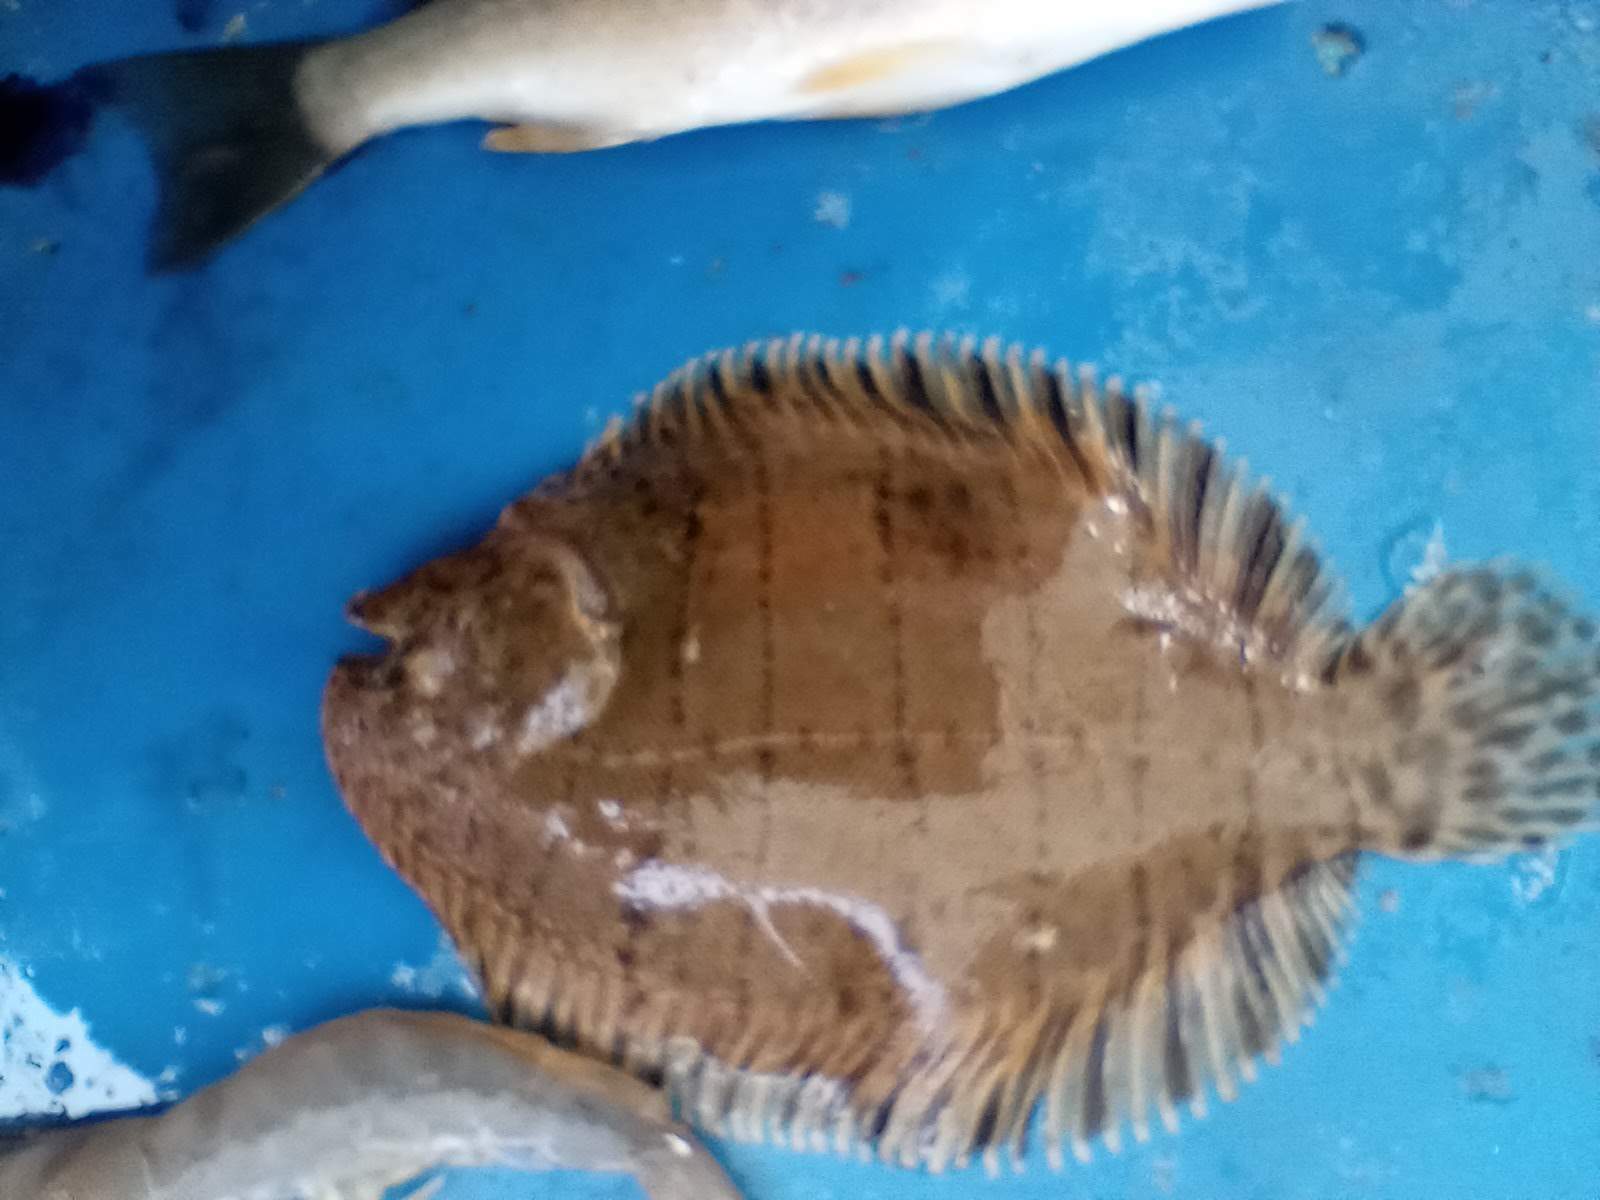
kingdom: Animalia
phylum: Chordata
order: Pleuronectiformes
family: Achiridae
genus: Trinectes
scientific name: Trinectes maculatus
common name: Hogchoker
